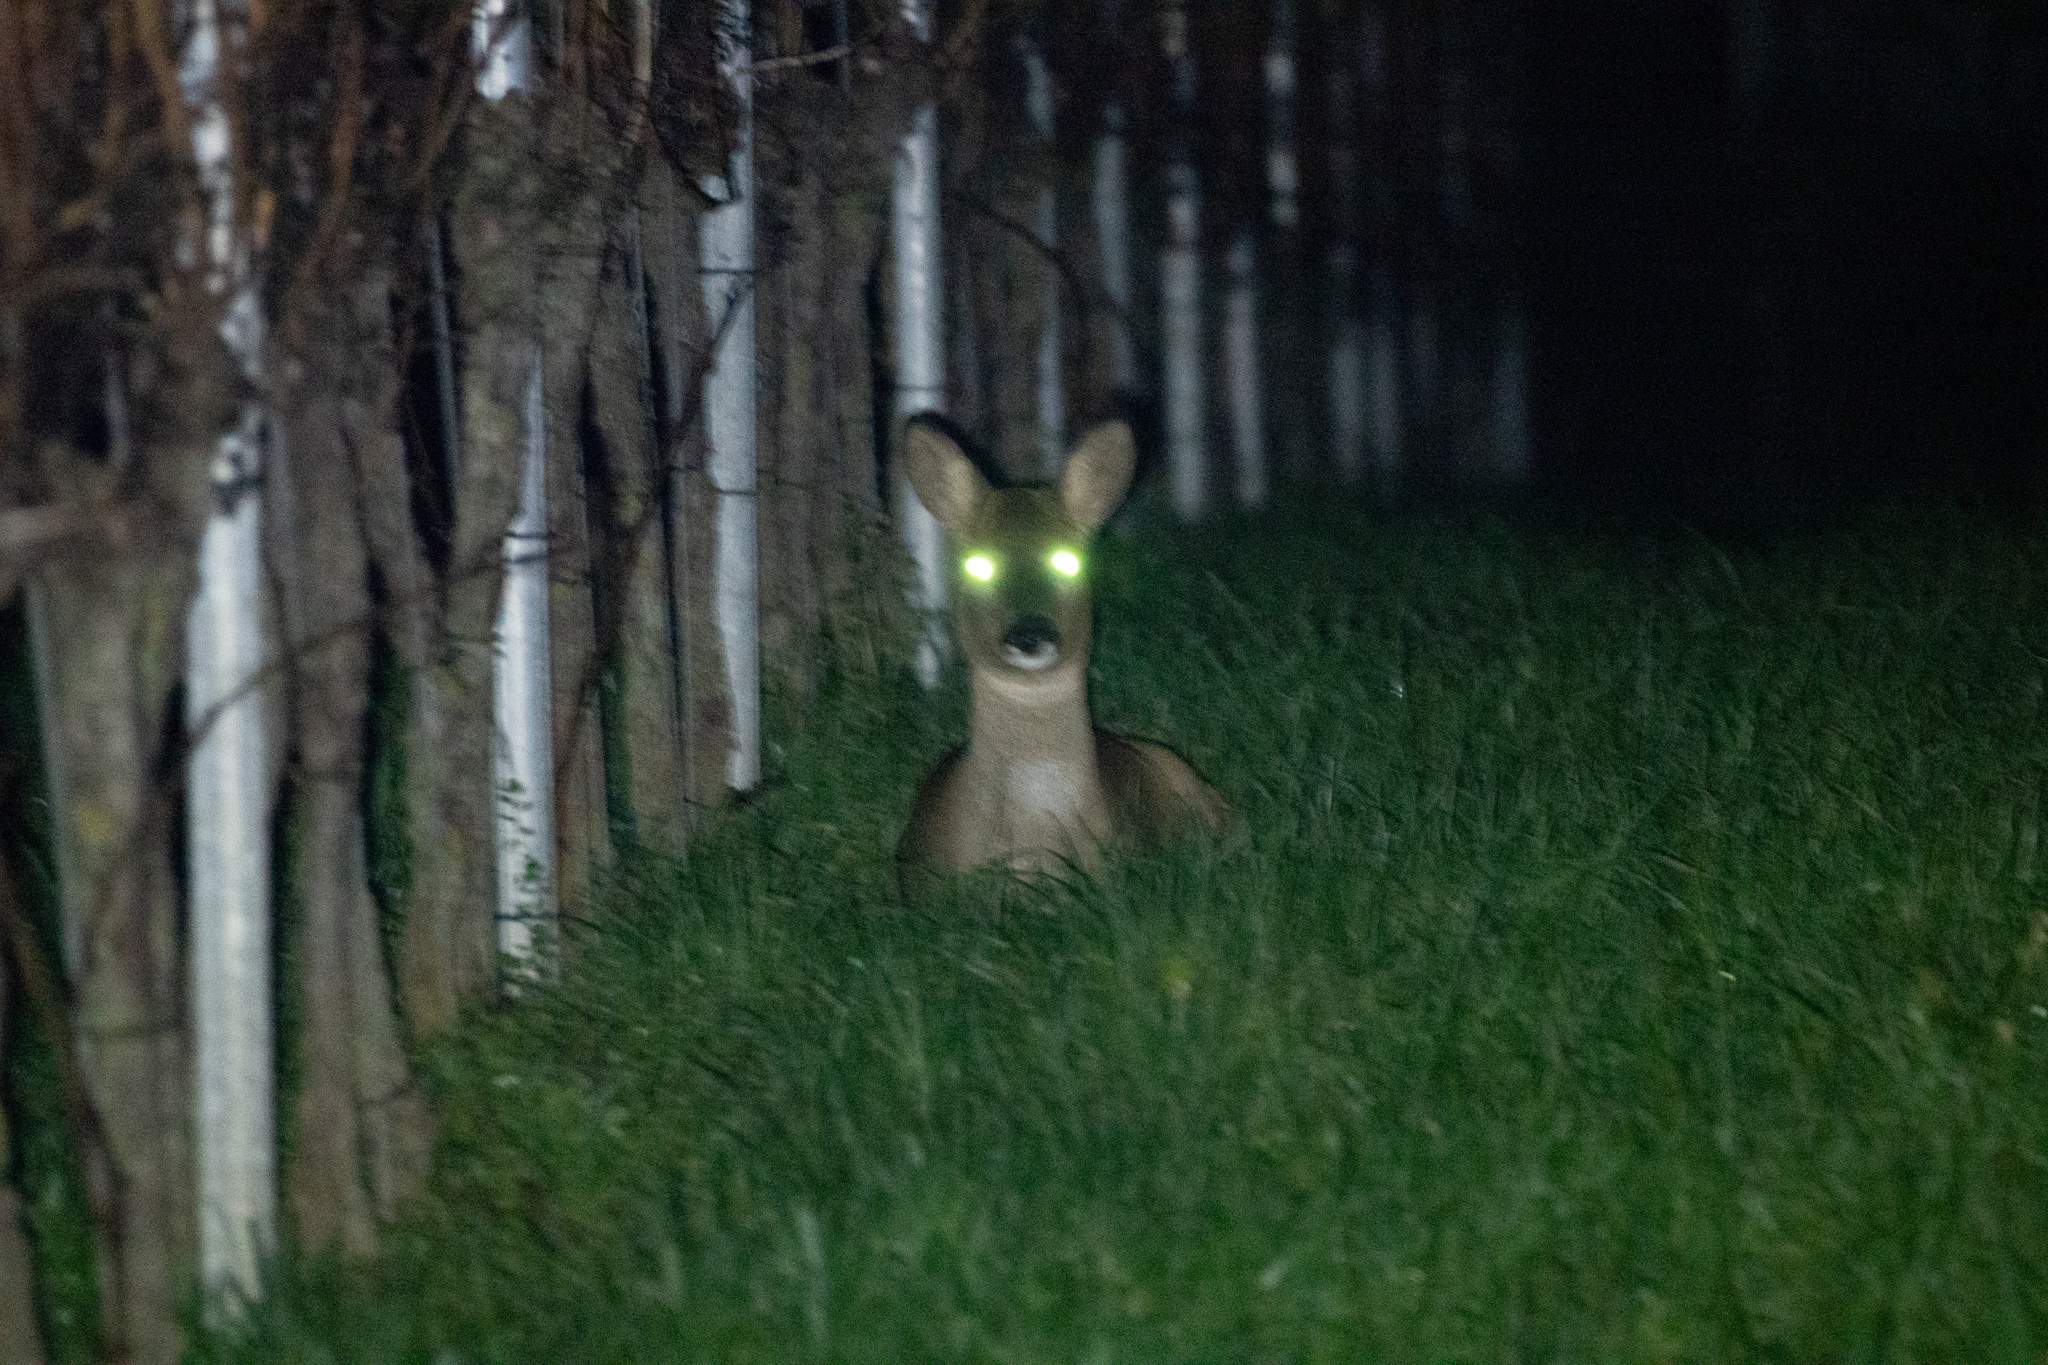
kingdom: Animalia
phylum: Chordata
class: Mammalia
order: Artiodactyla
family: Cervidae
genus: Capreolus
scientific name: Capreolus capreolus
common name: Western roe deer
